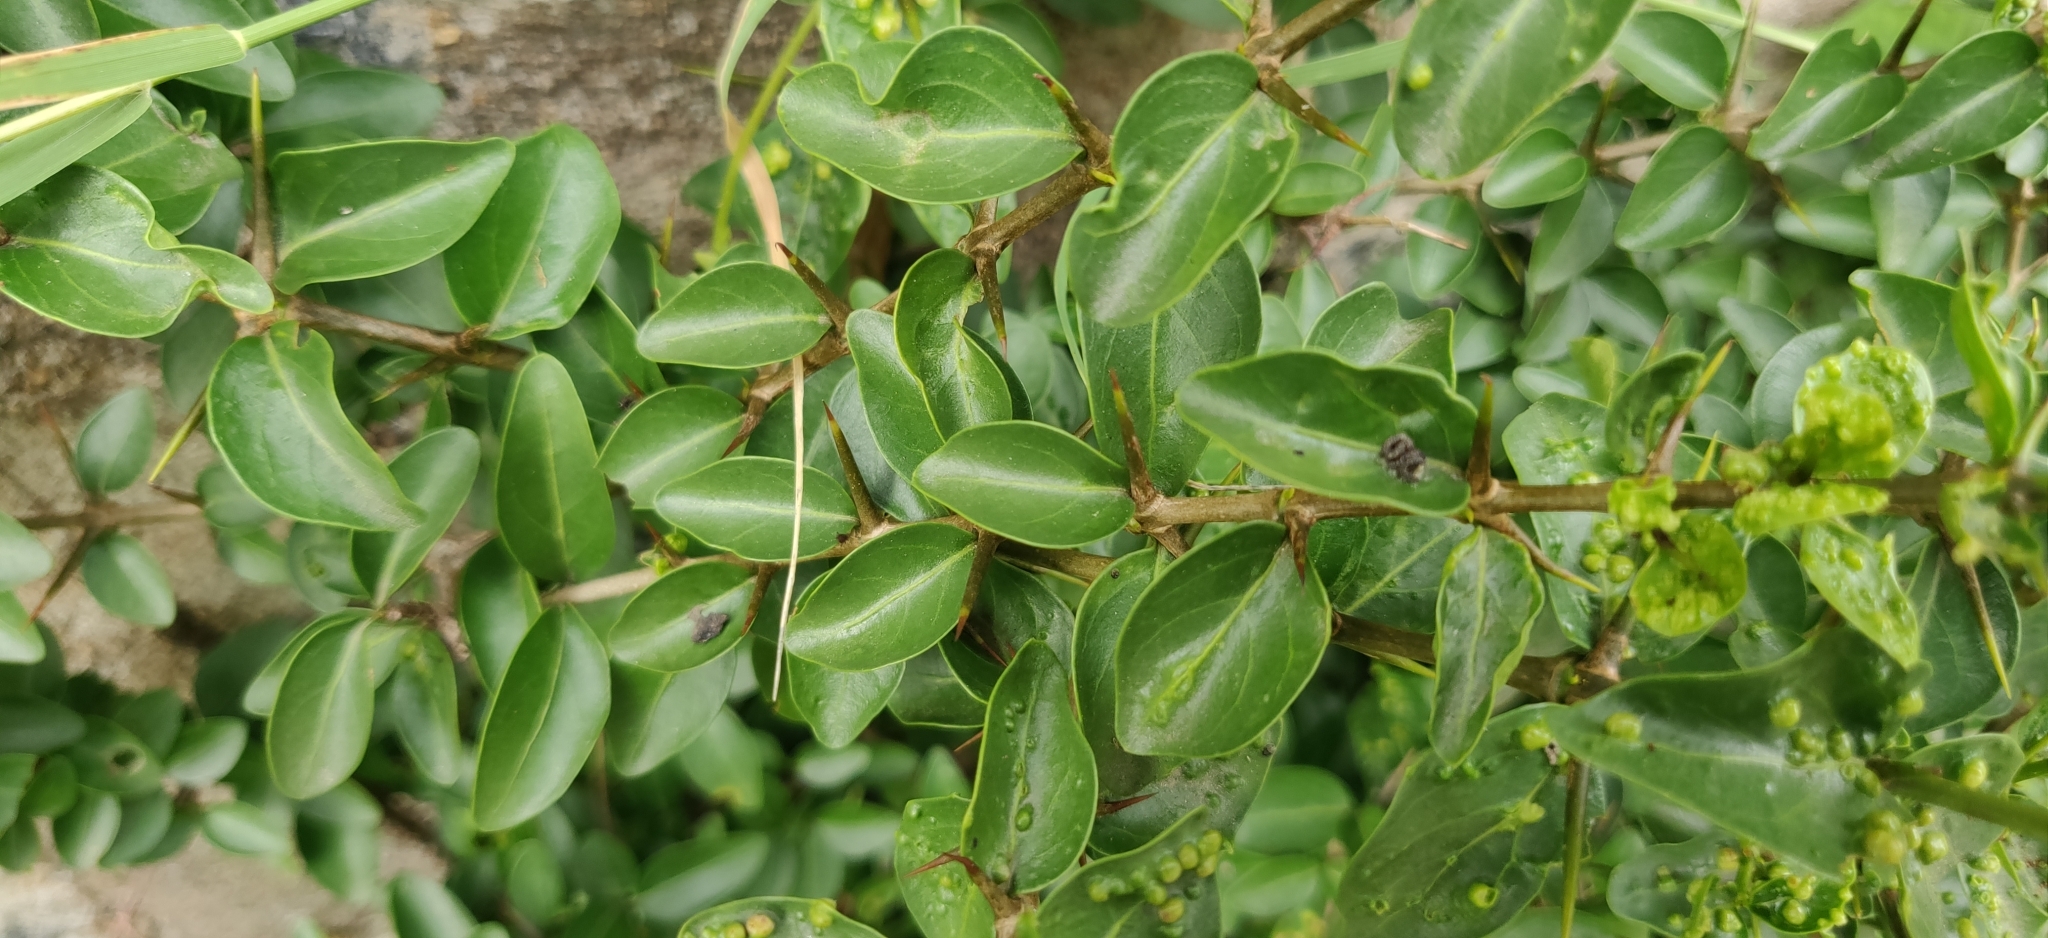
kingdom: Plantae
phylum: Tracheophyta
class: Magnoliopsida
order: Gentianales
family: Rubiaceae
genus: Canthium
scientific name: Canthium coromandelicum
